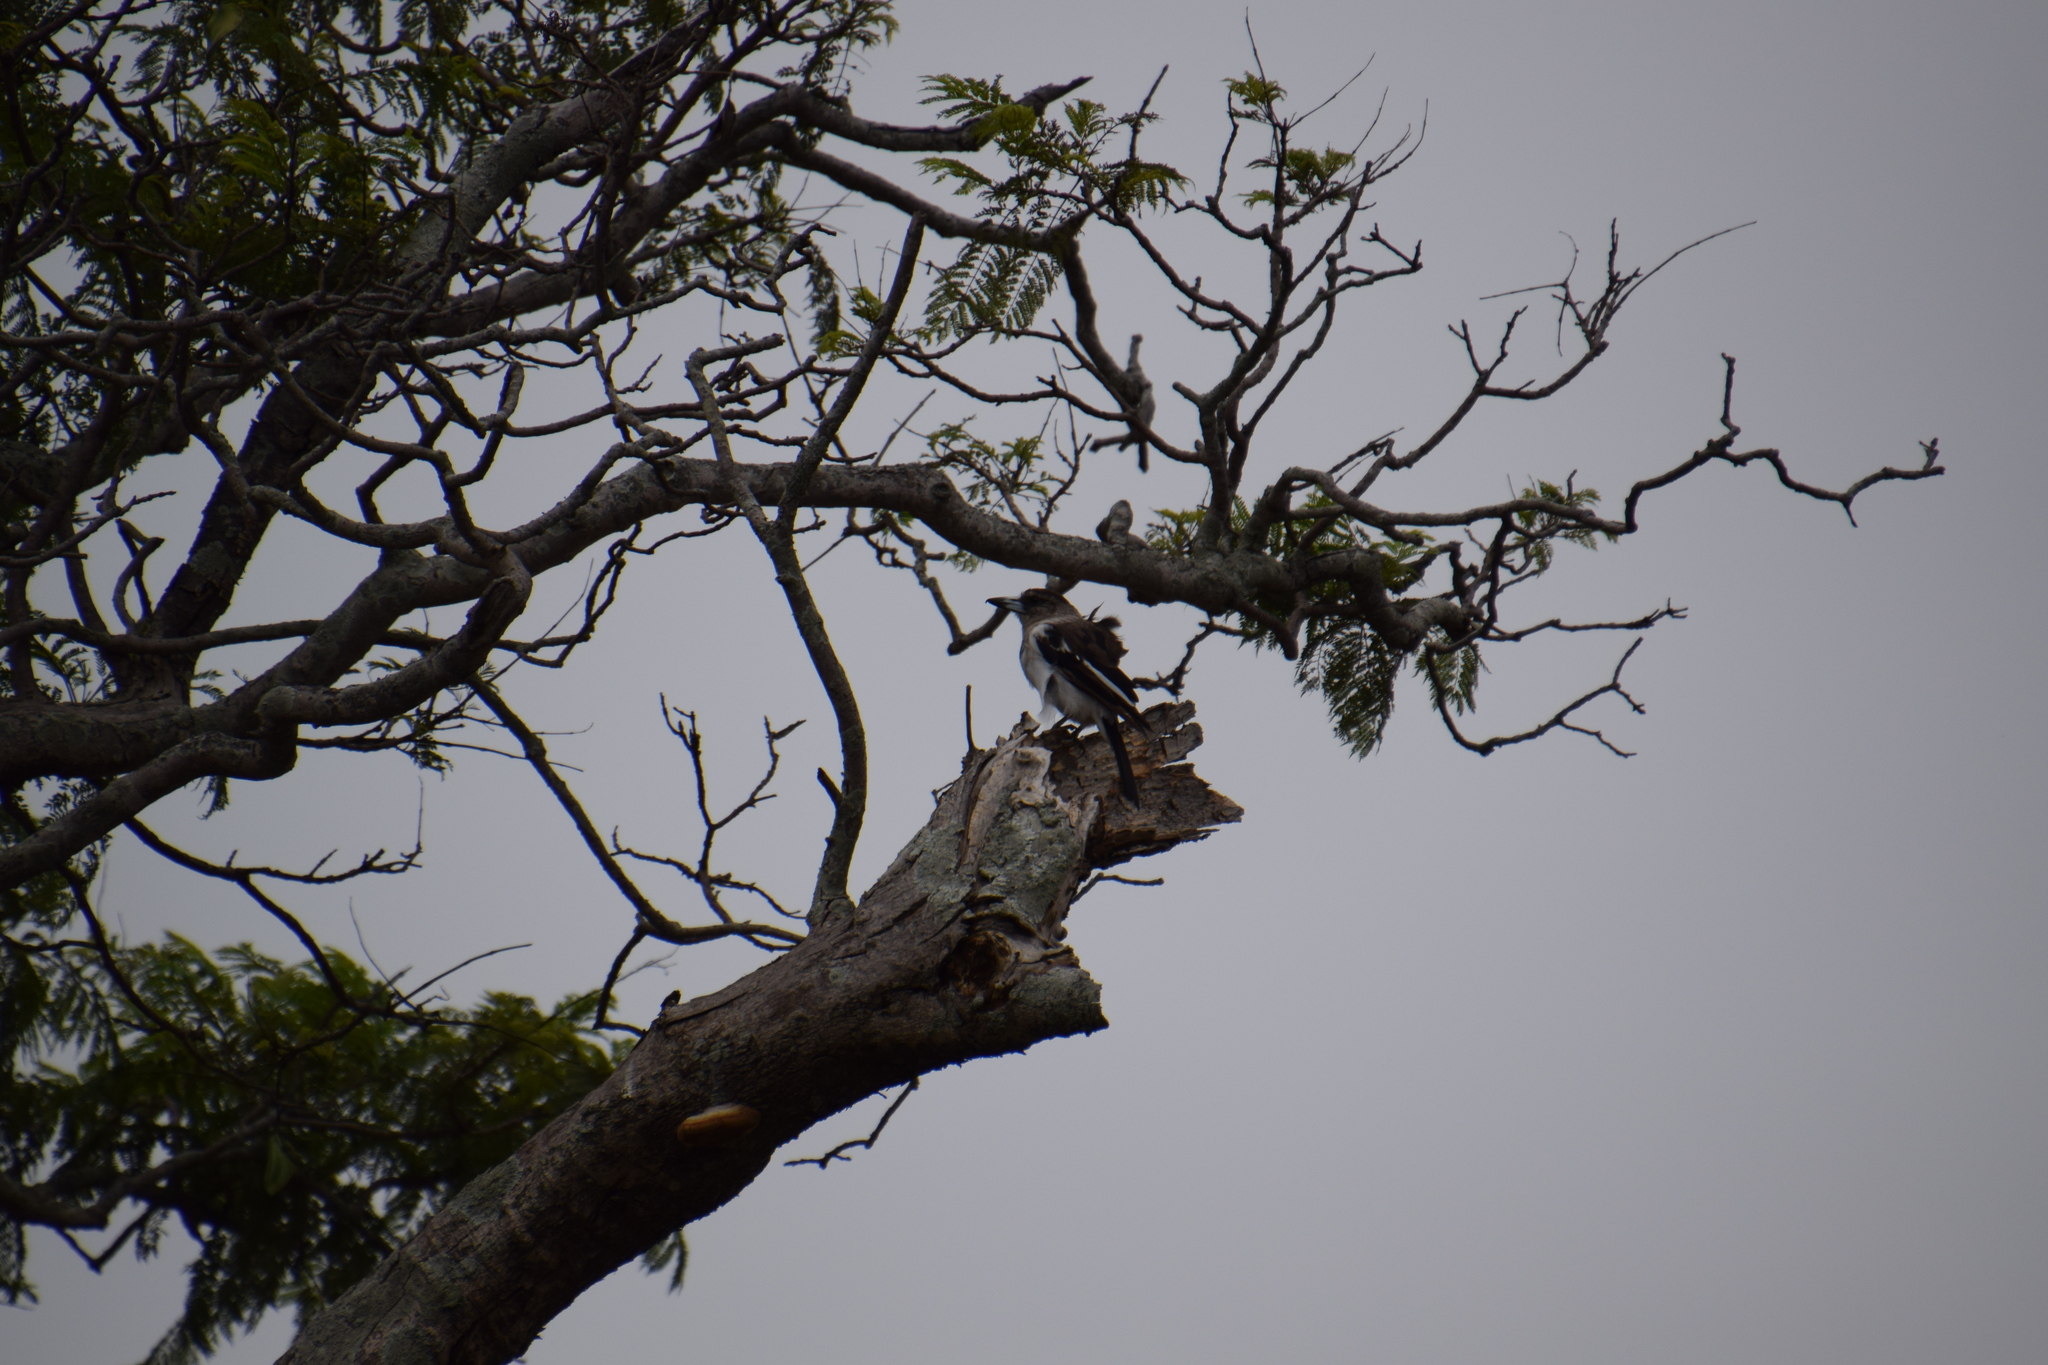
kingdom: Animalia
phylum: Chordata
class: Aves
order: Passeriformes
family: Cracticidae
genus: Cracticus
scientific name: Cracticus nigrogularis
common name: Pied butcherbird
